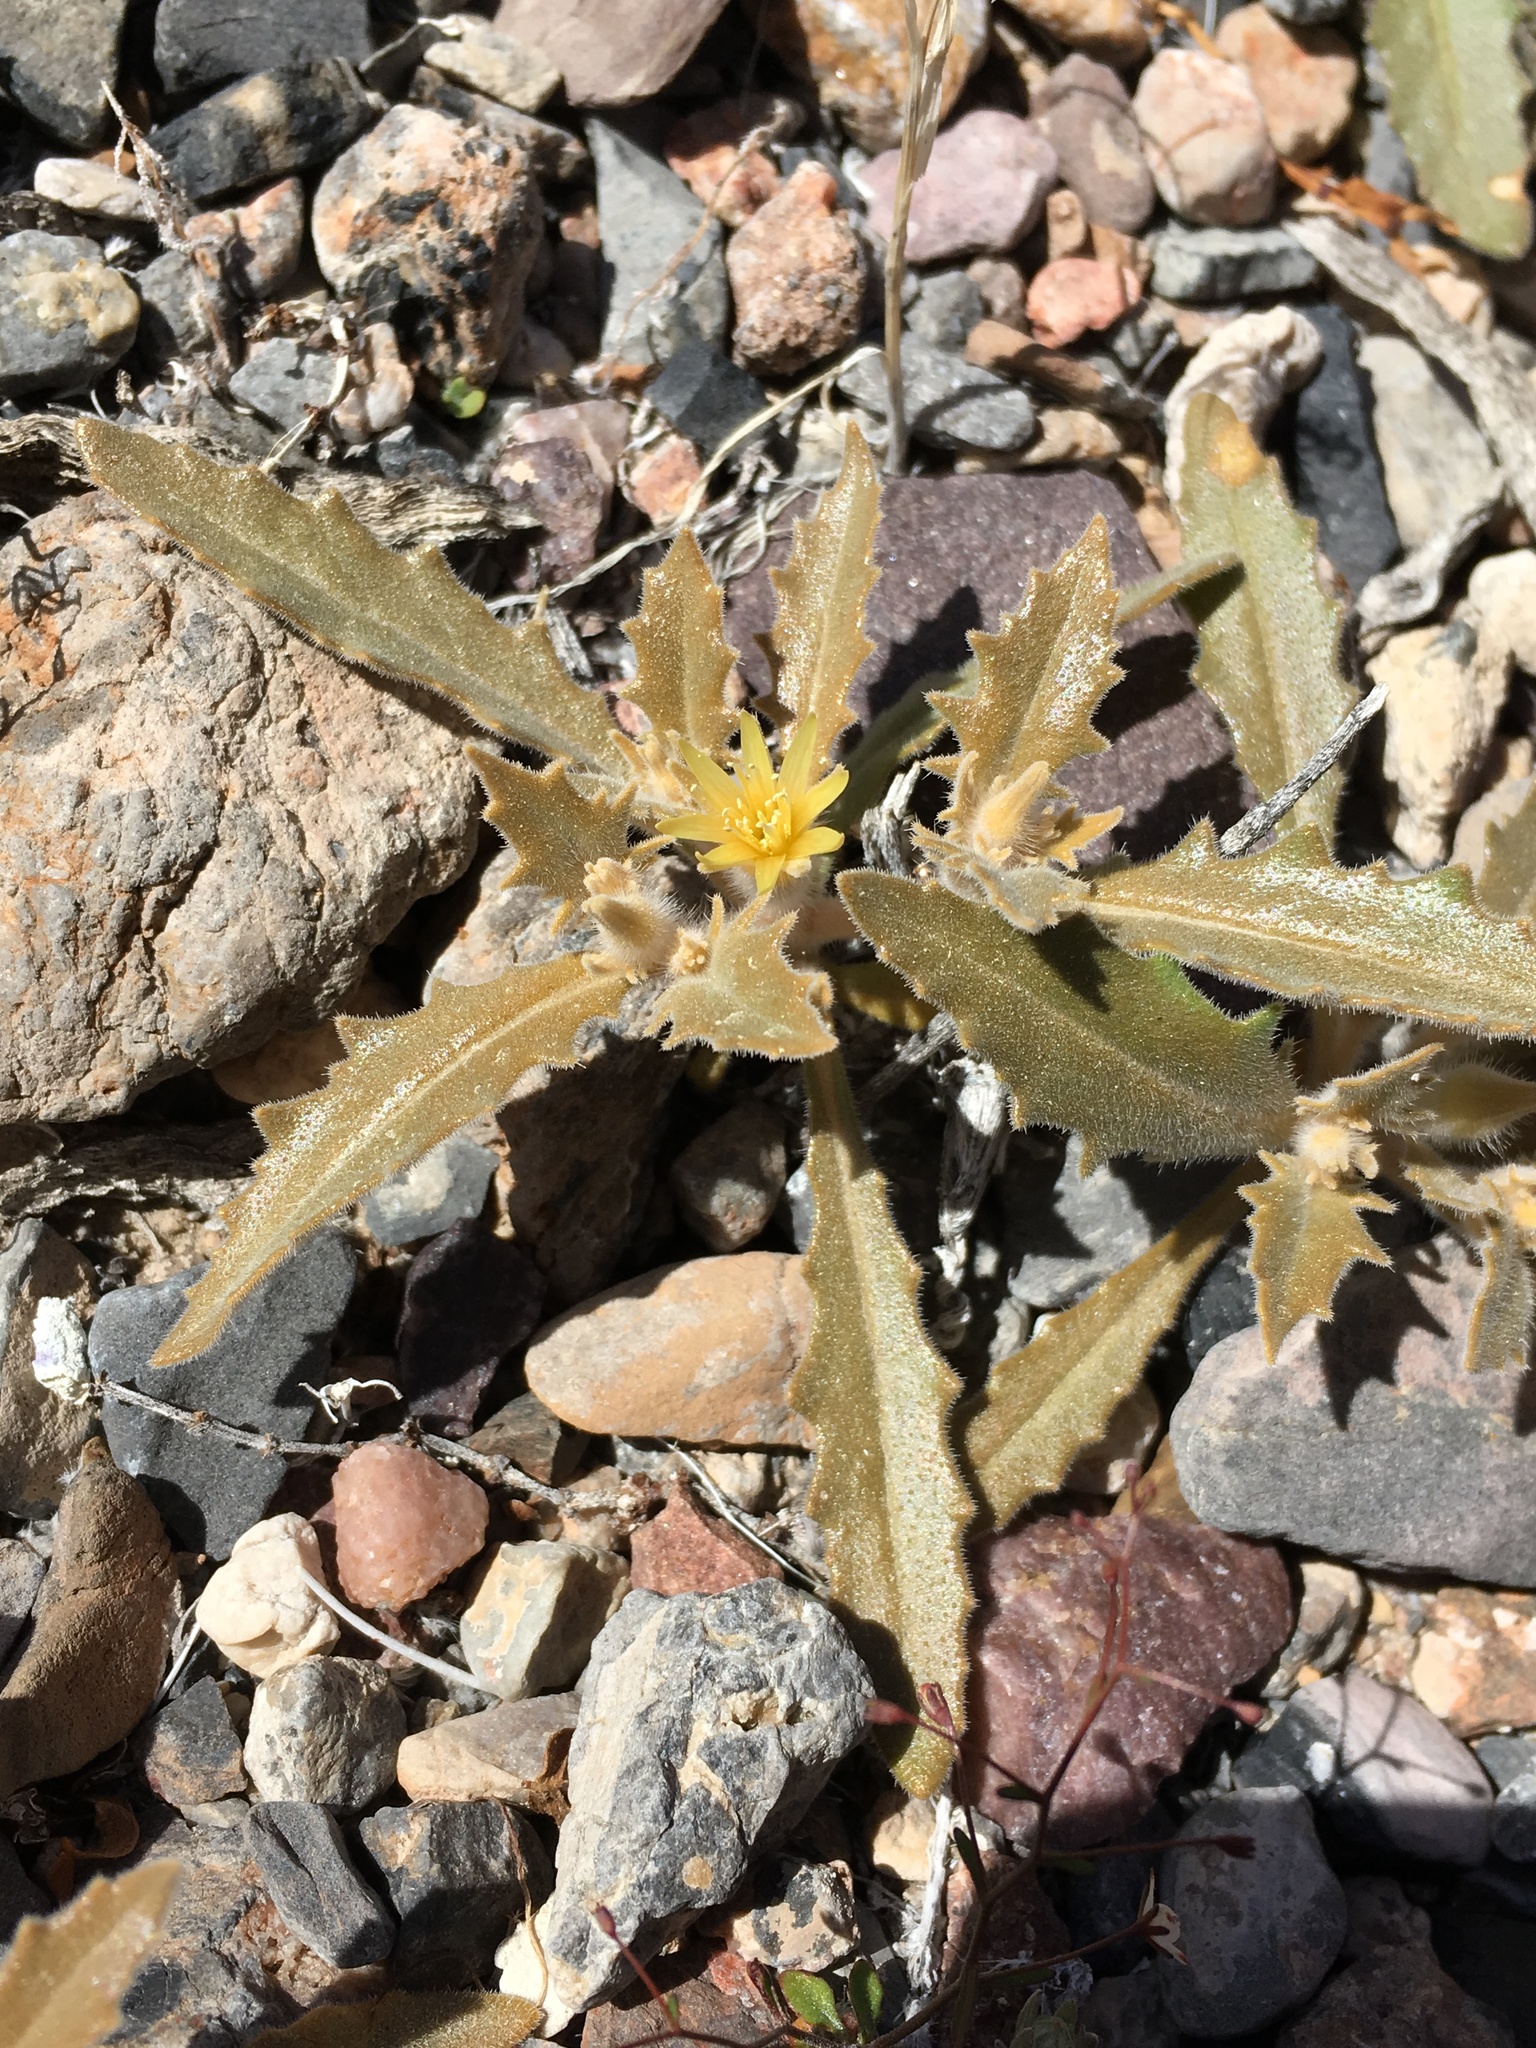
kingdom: Plantae
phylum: Tracheophyta
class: Magnoliopsida
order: Cornales
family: Loasaceae
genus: Mentzelia
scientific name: Mentzelia reflexa
